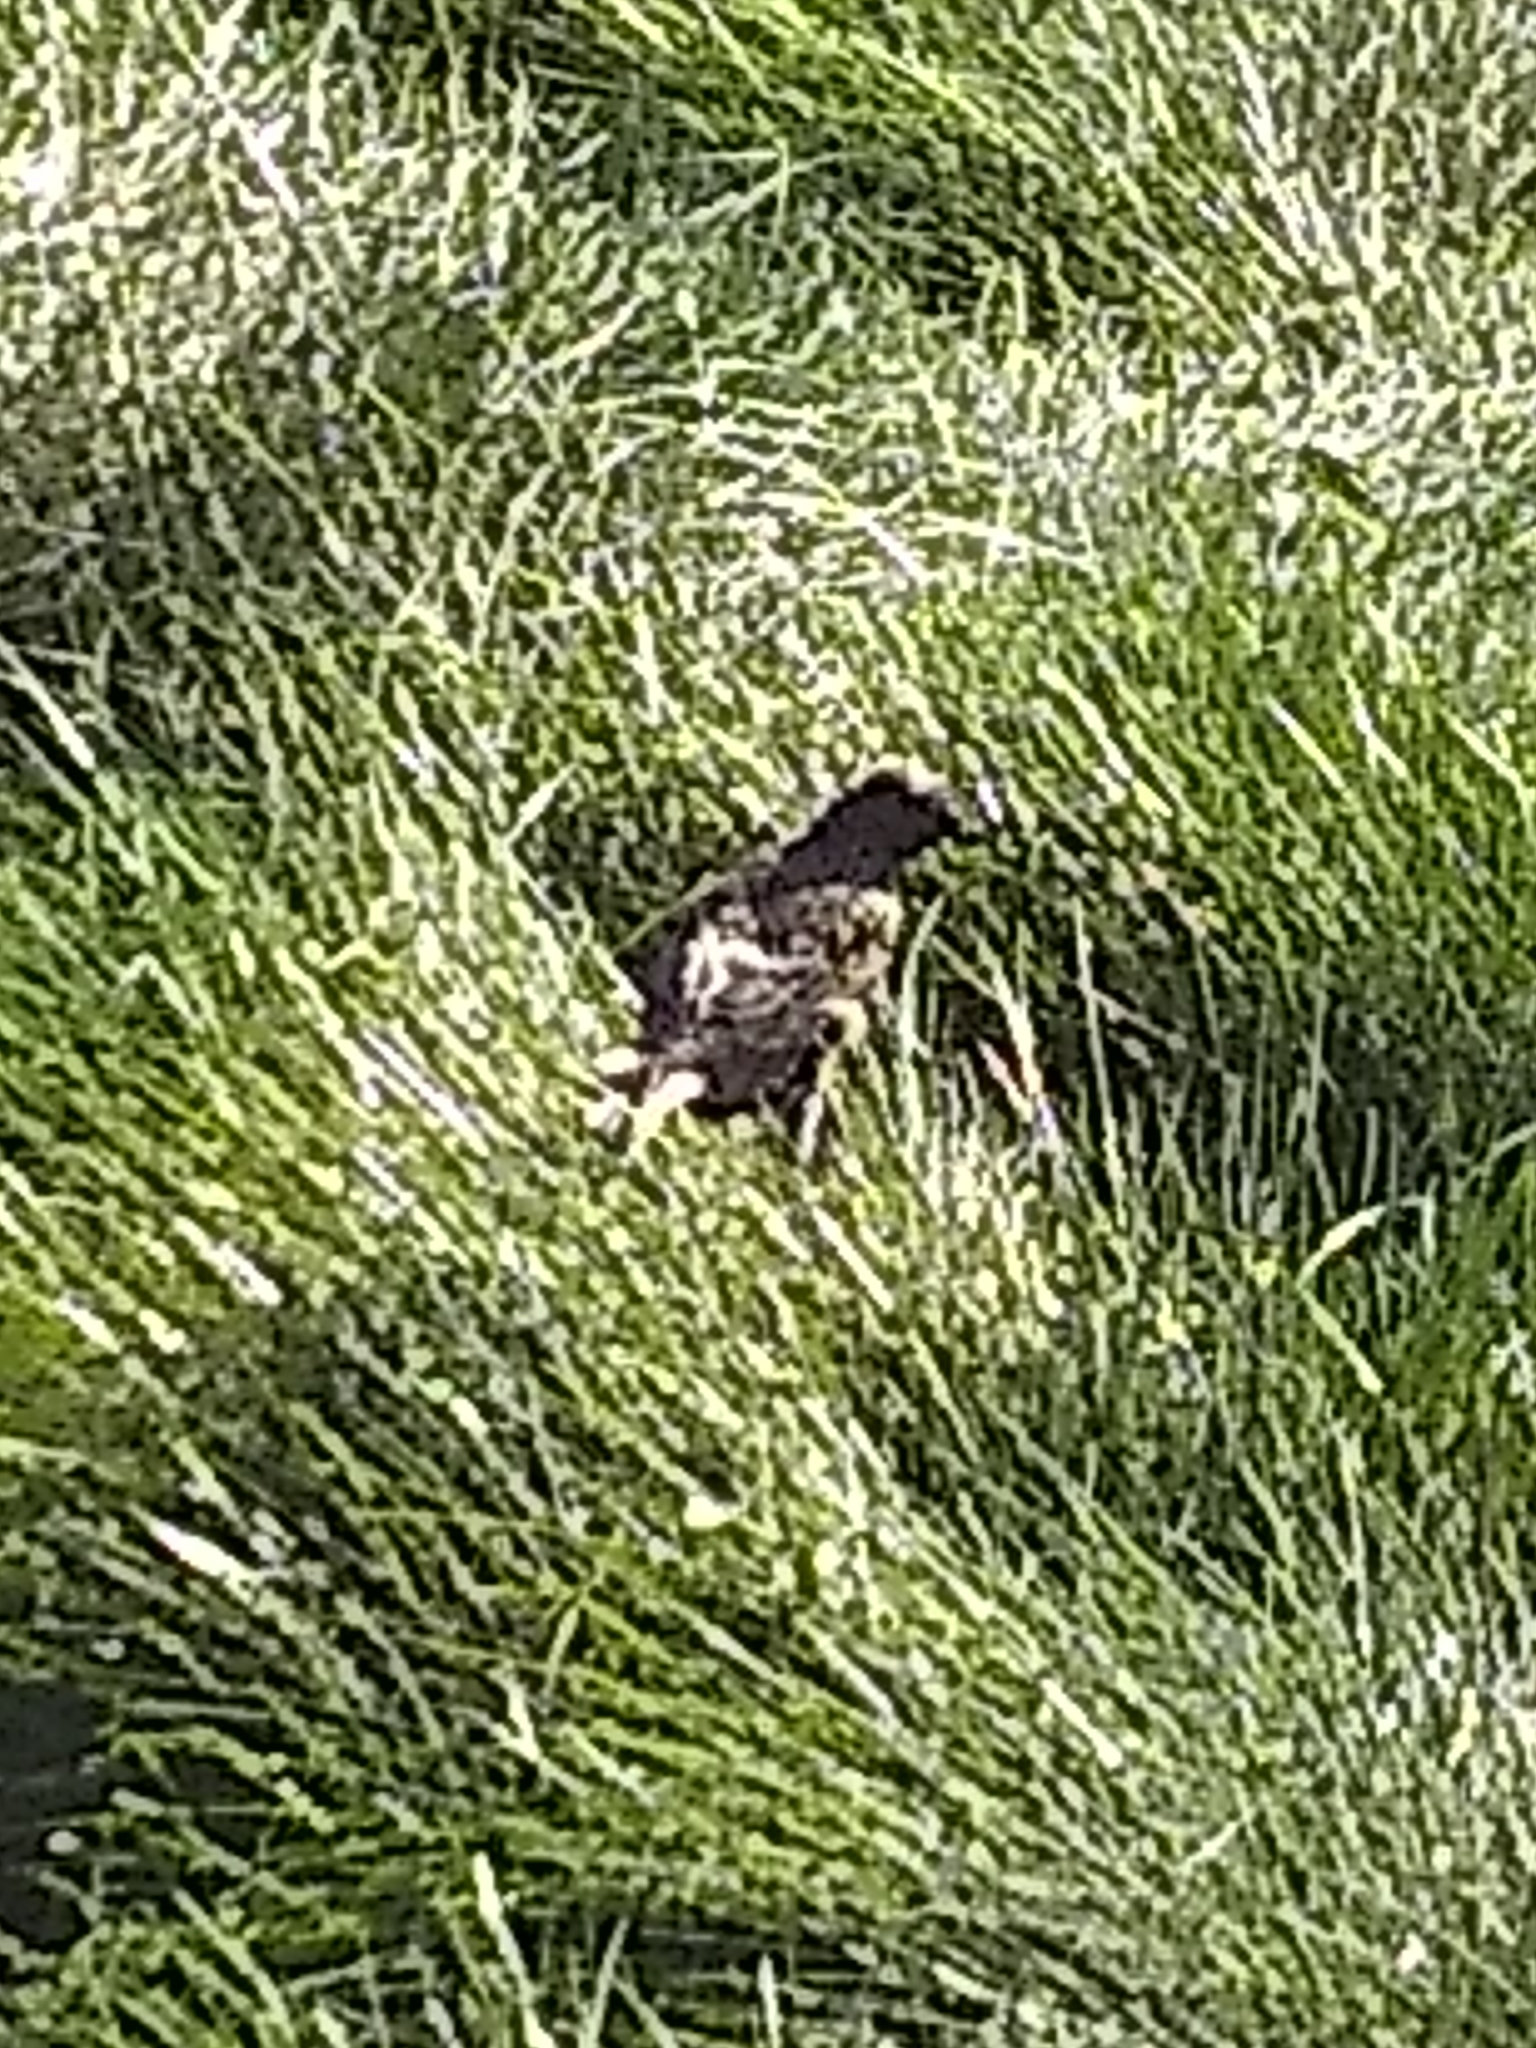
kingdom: Animalia
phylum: Chordata
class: Aves
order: Passeriformes
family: Sturnidae
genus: Sturnus
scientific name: Sturnus vulgaris
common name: Common starling
